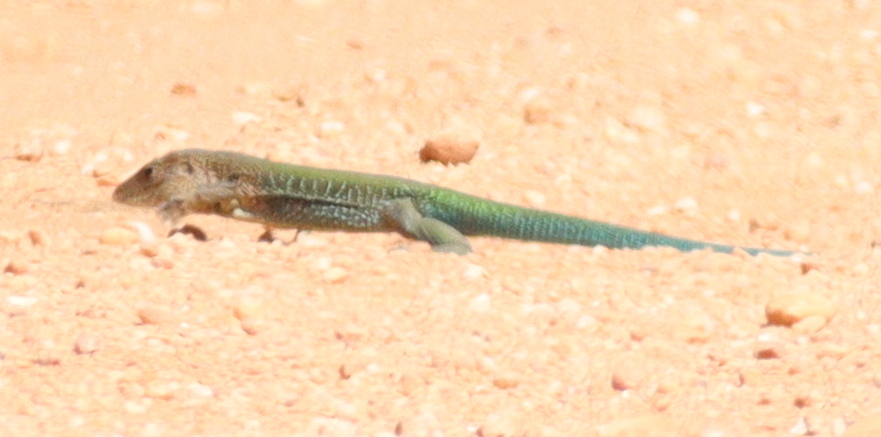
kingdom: Animalia
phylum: Chordata
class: Squamata
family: Teiidae
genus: Ameiva
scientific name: Ameiva ameiva
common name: Giant ameiva
